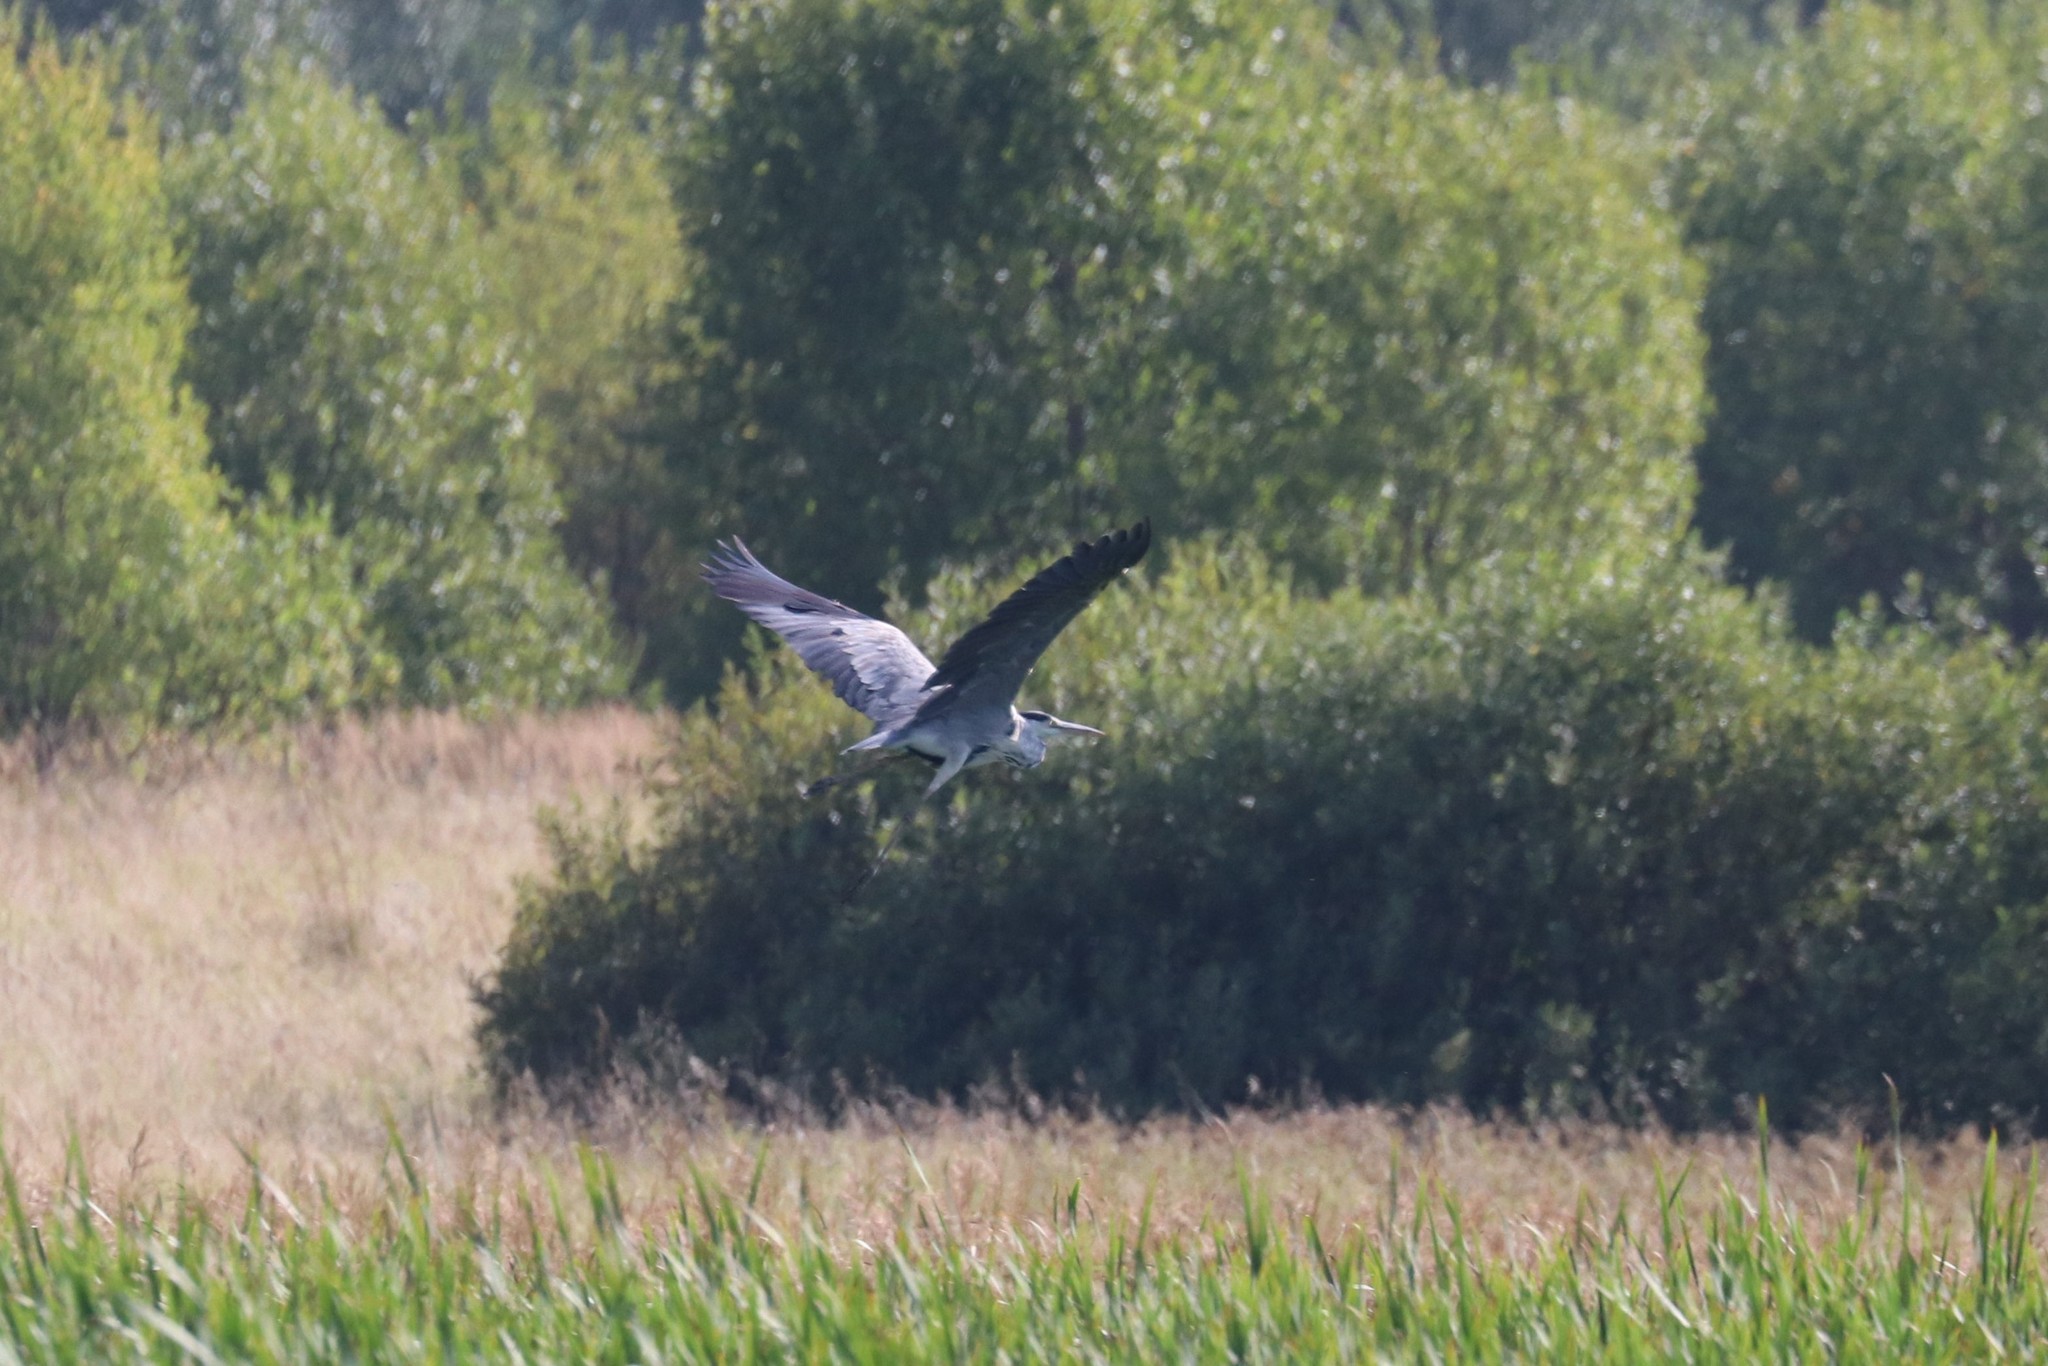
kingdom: Animalia
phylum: Chordata
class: Aves
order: Pelecaniformes
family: Ardeidae
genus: Ardea
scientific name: Ardea cinerea
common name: Grey heron
